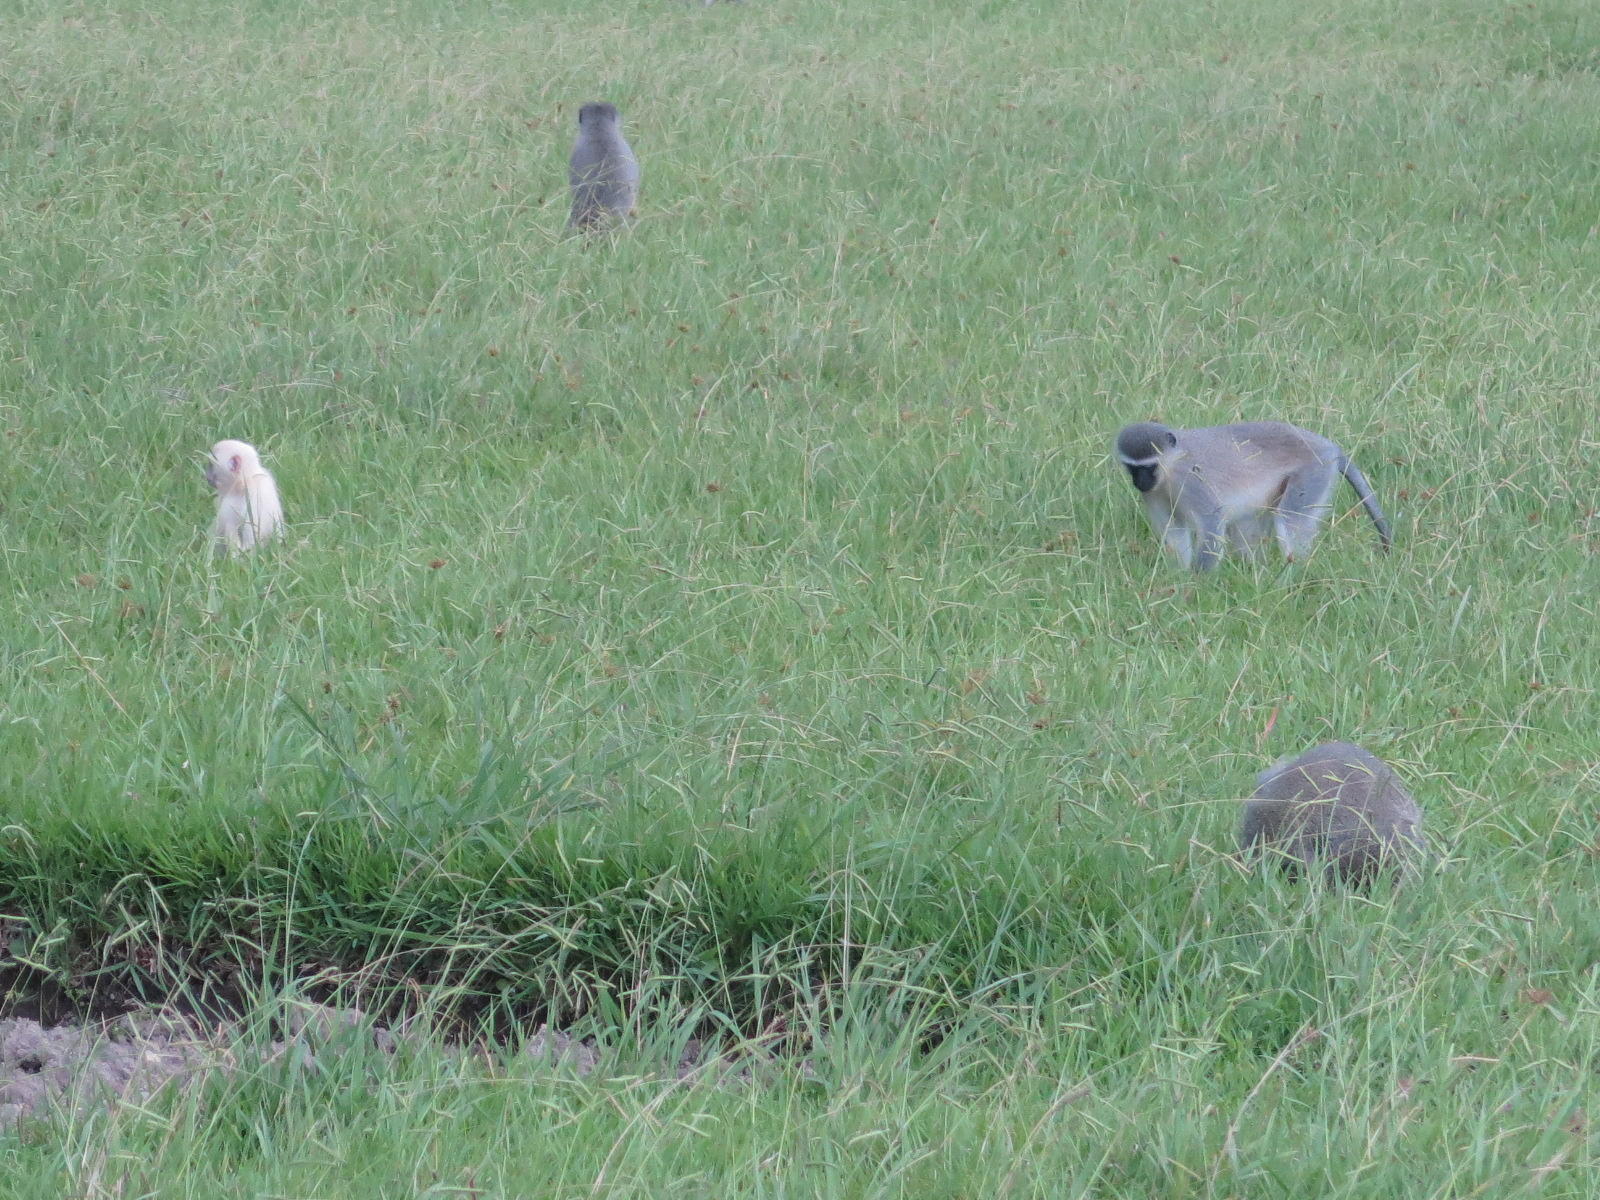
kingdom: Animalia
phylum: Chordata
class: Mammalia
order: Primates
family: Cercopithecidae
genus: Chlorocebus
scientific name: Chlorocebus pygerythrus
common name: Vervet monkey
